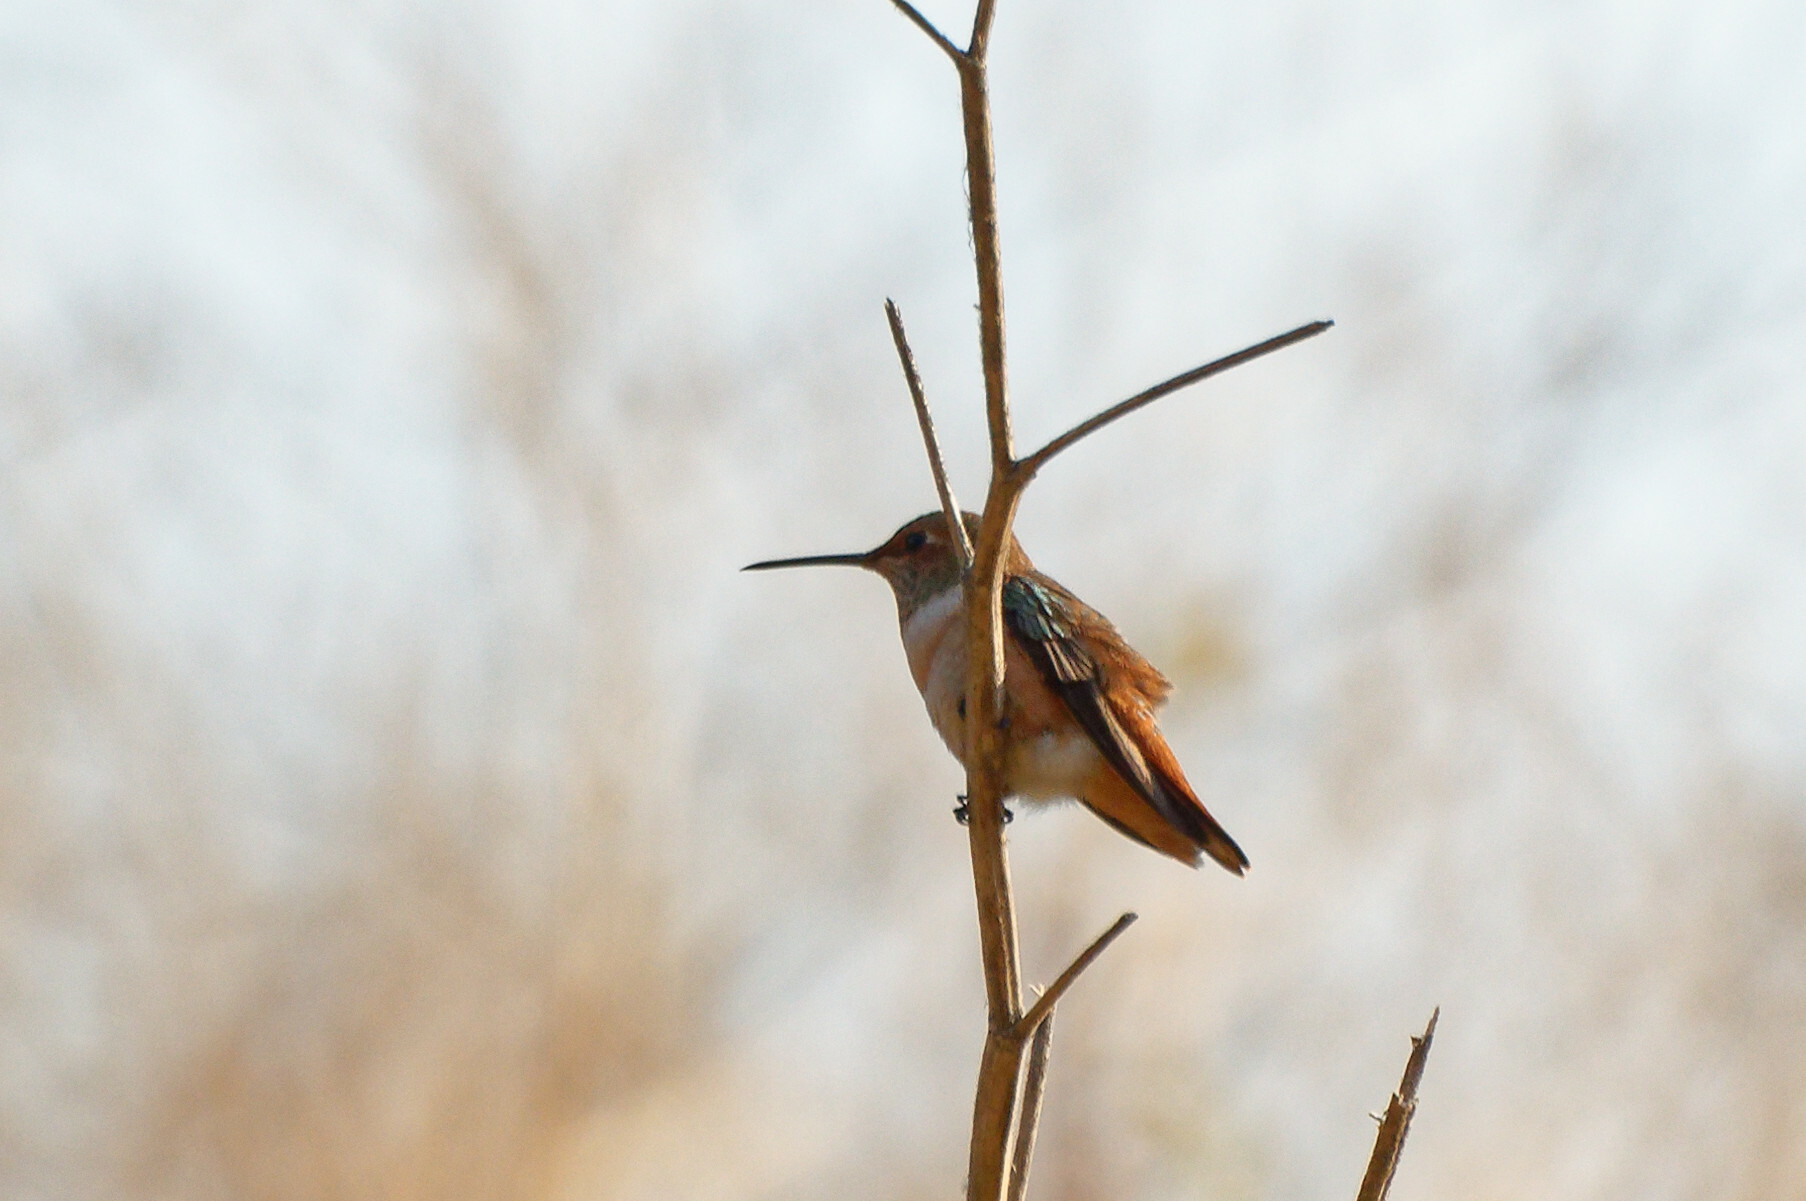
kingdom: Animalia
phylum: Chordata
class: Aves
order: Apodiformes
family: Trochilidae
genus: Selasphorus
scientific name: Selasphorus
